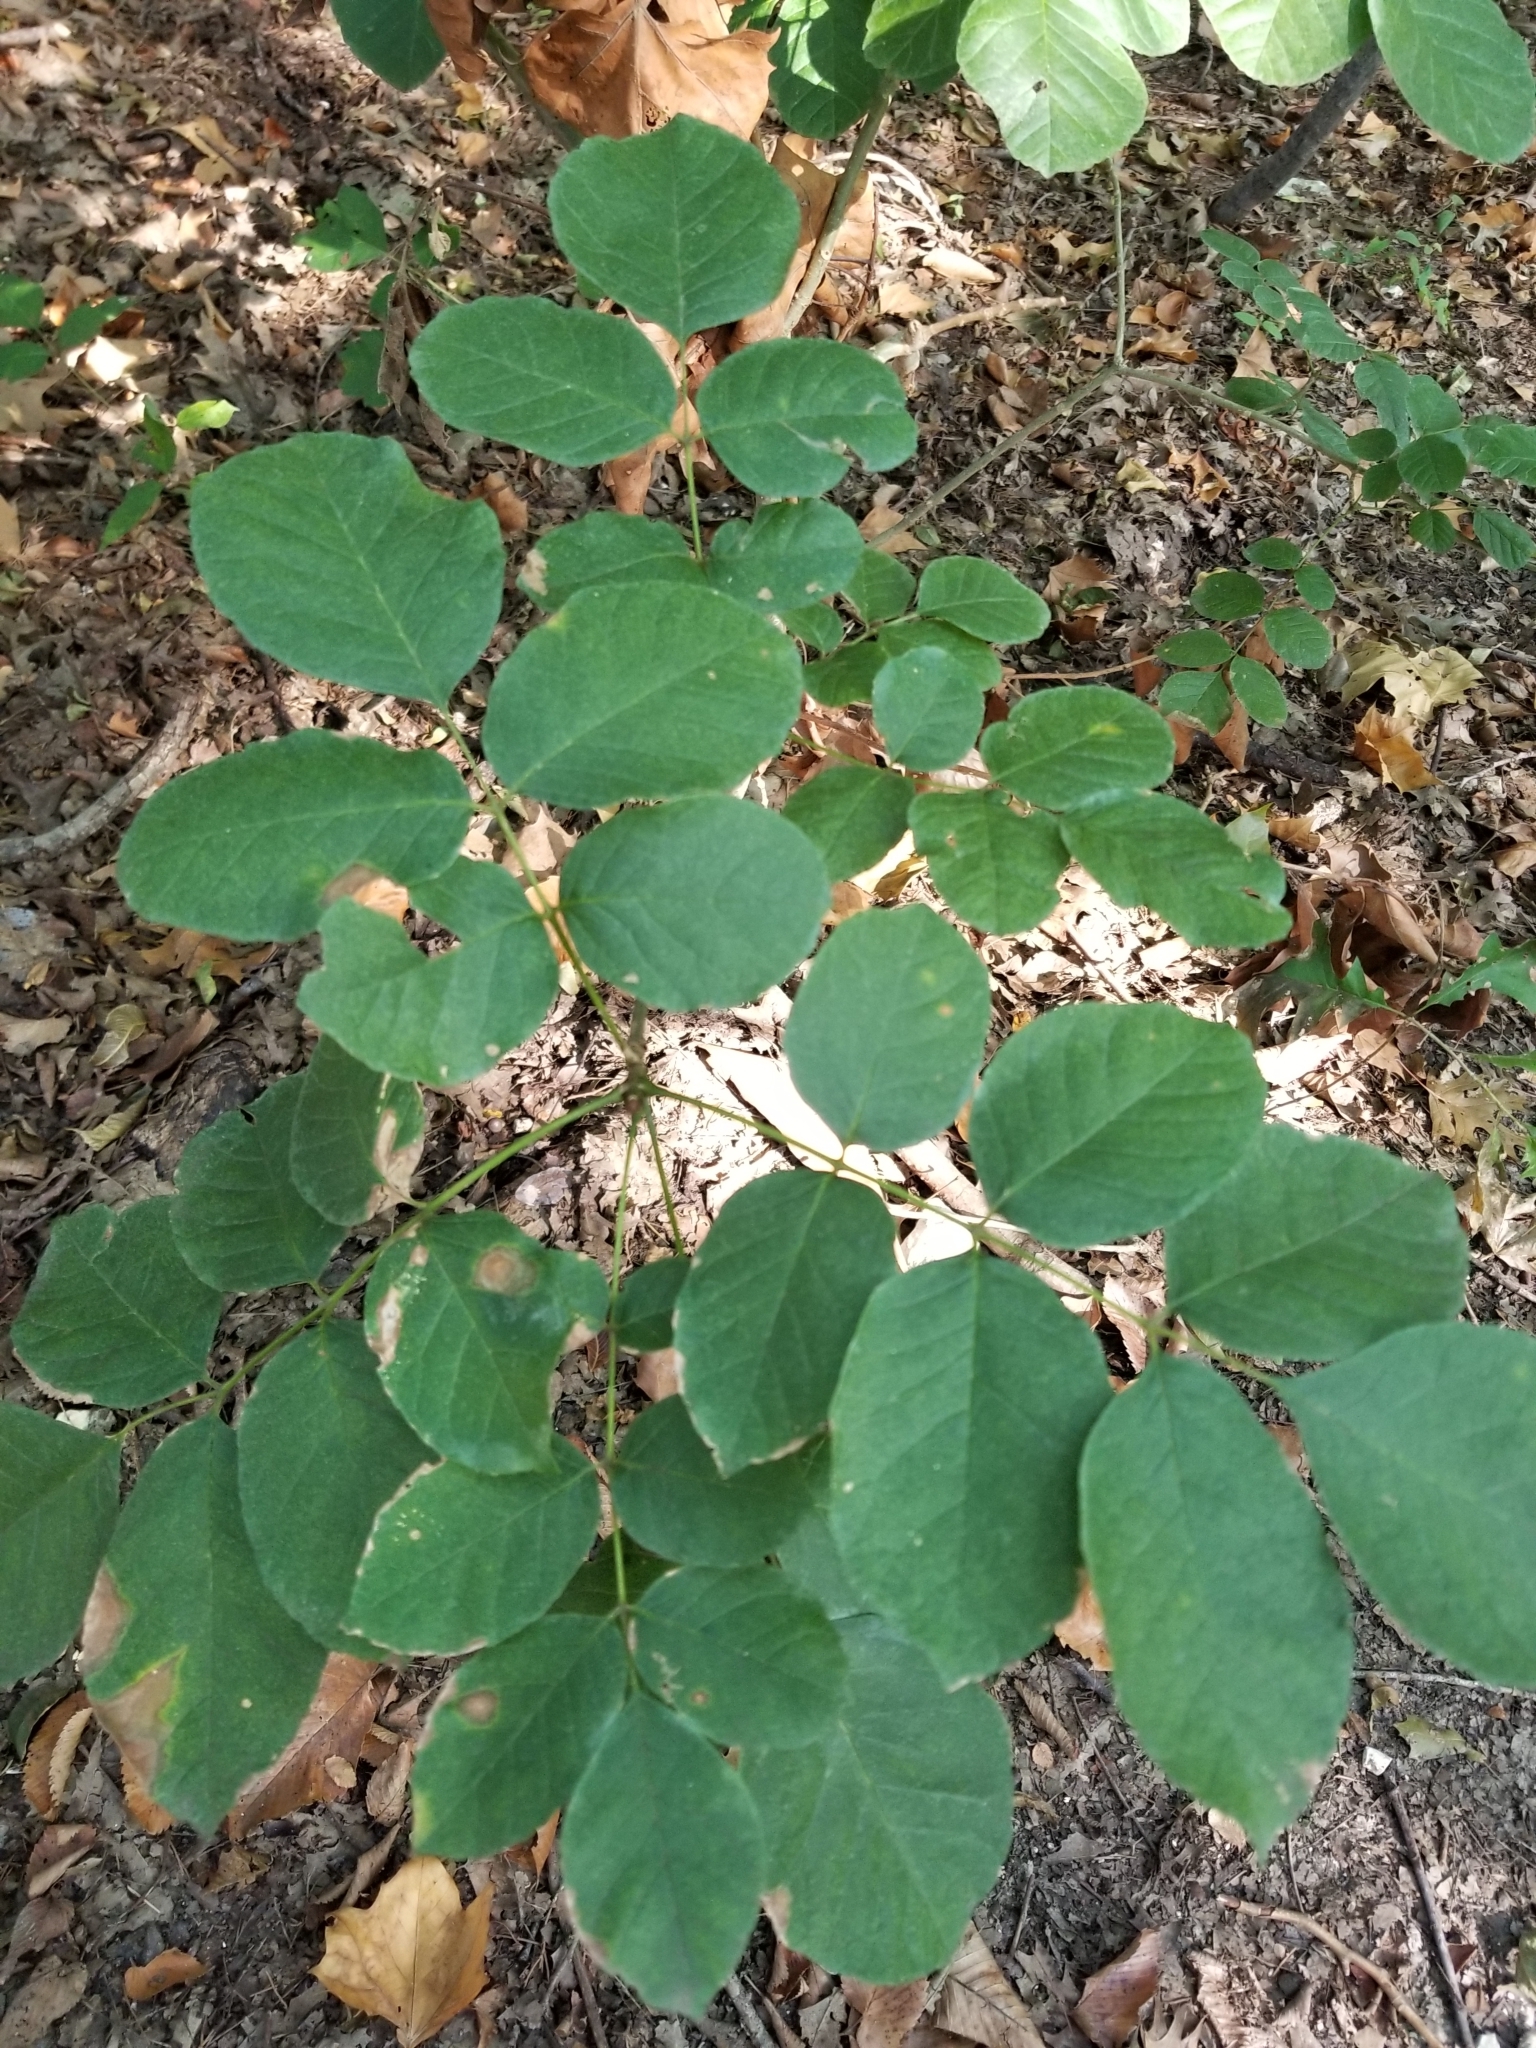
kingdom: Plantae
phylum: Tracheophyta
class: Magnoliopsida
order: Lamiales
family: Oleaceae
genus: Fraxinus
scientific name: Fraxinus albicans
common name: Texas ash
